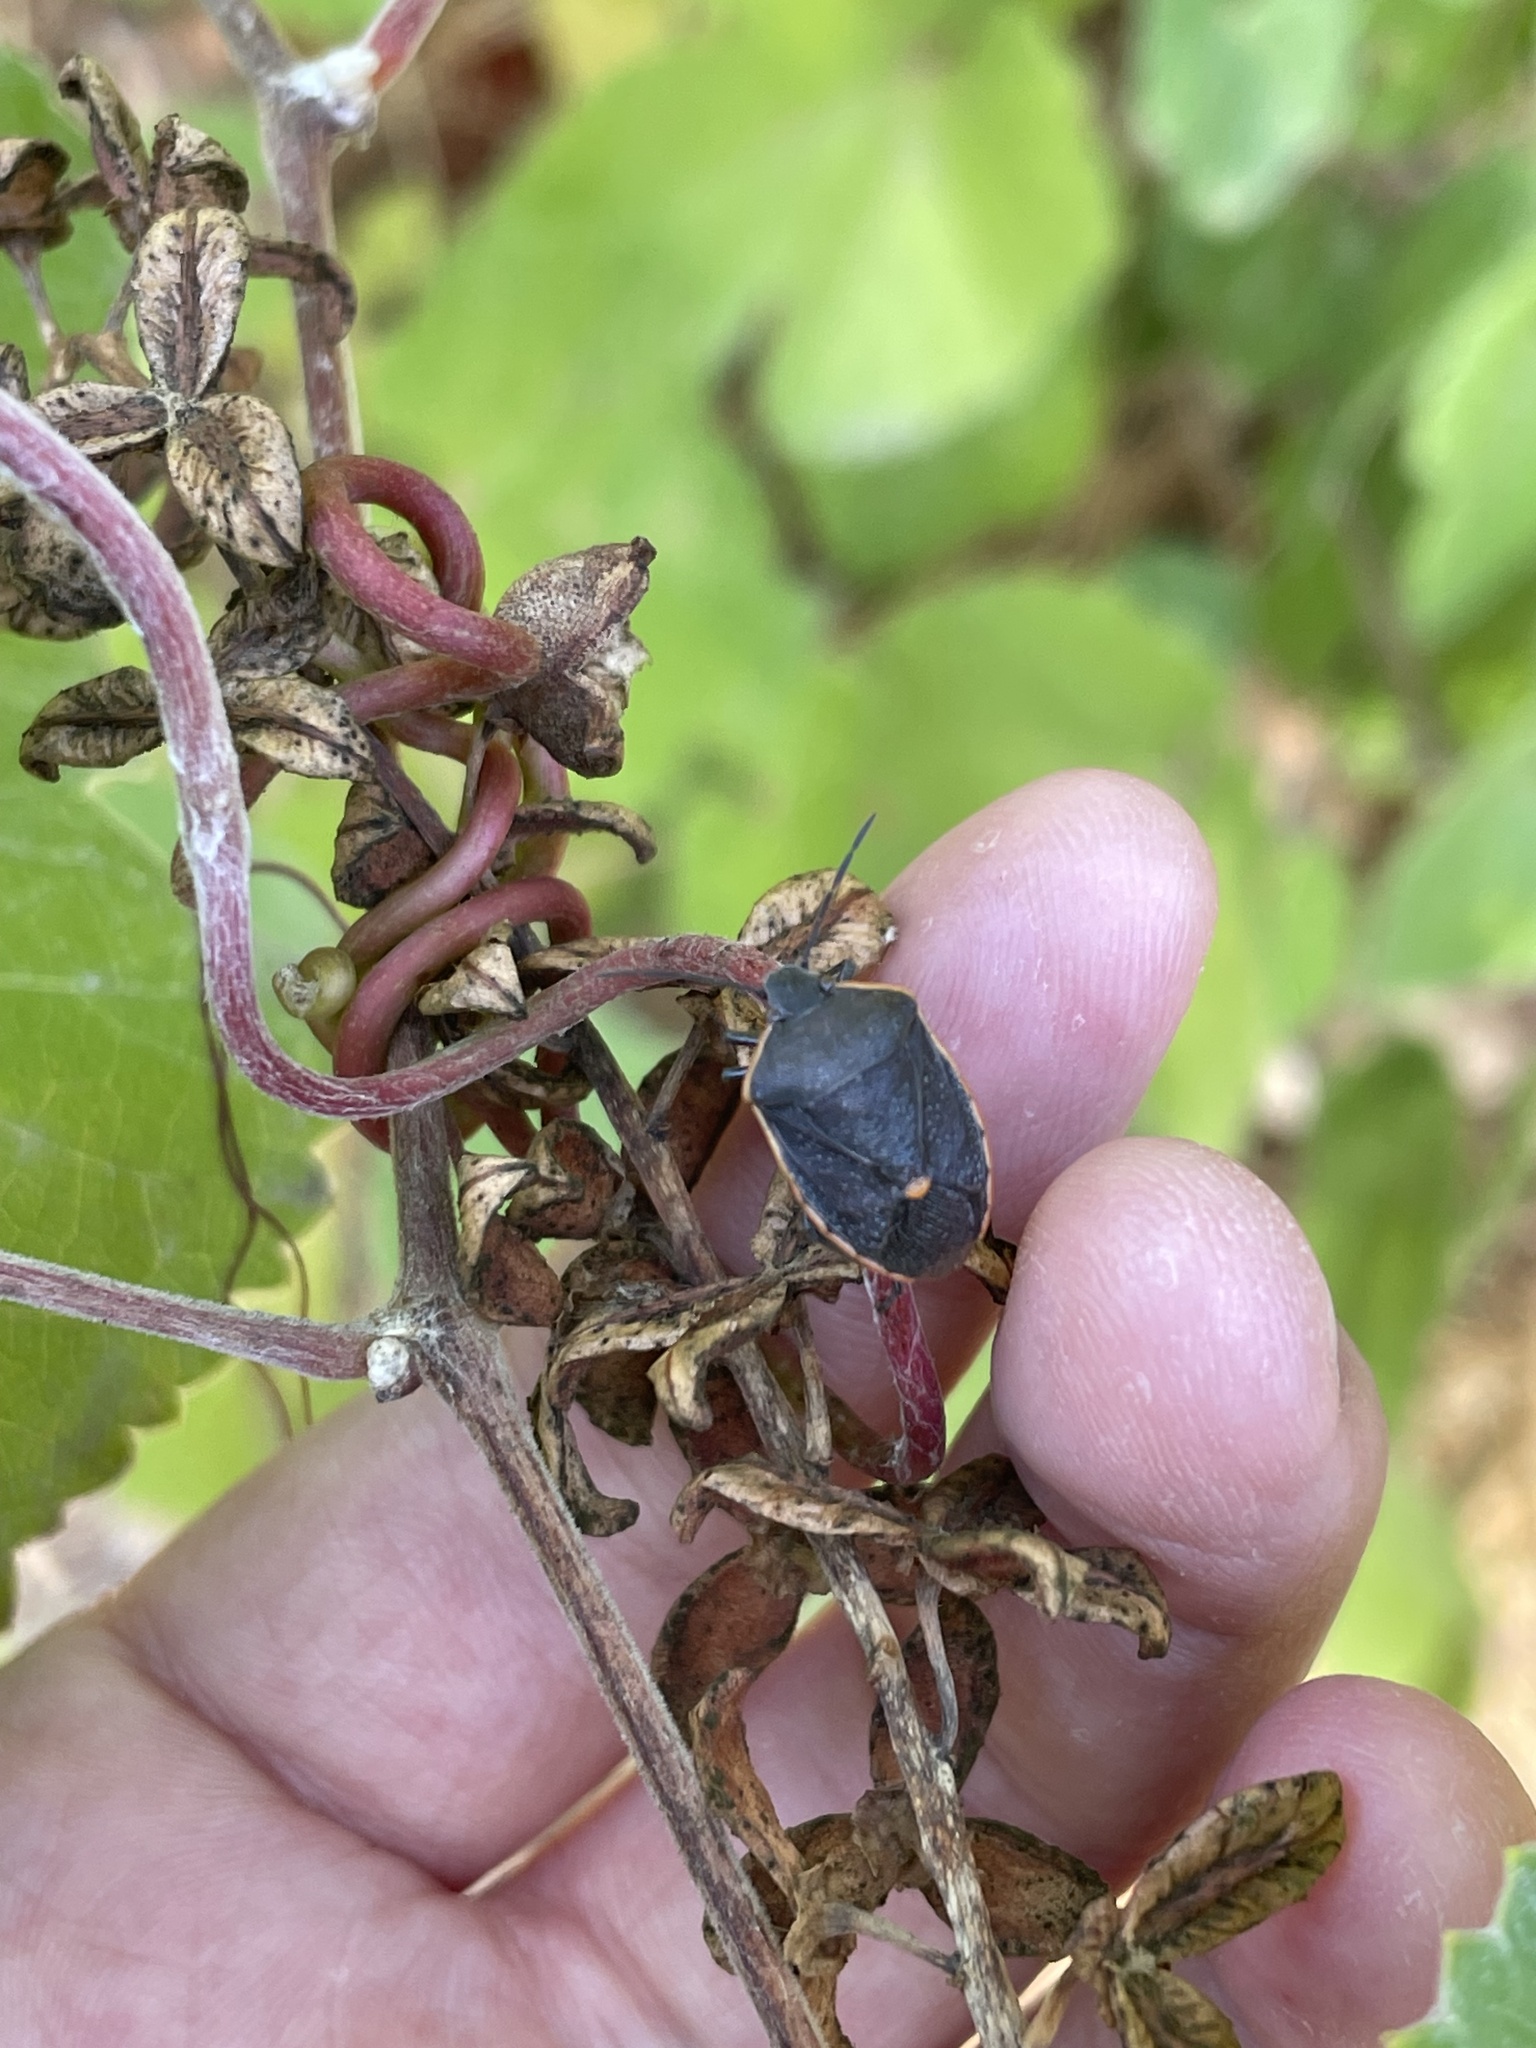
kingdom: Animalia
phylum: Arthropoda
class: Insecta
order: Hemiptera
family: Pentatomidae
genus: Chlorochroa
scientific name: Chlorochroa ligata
